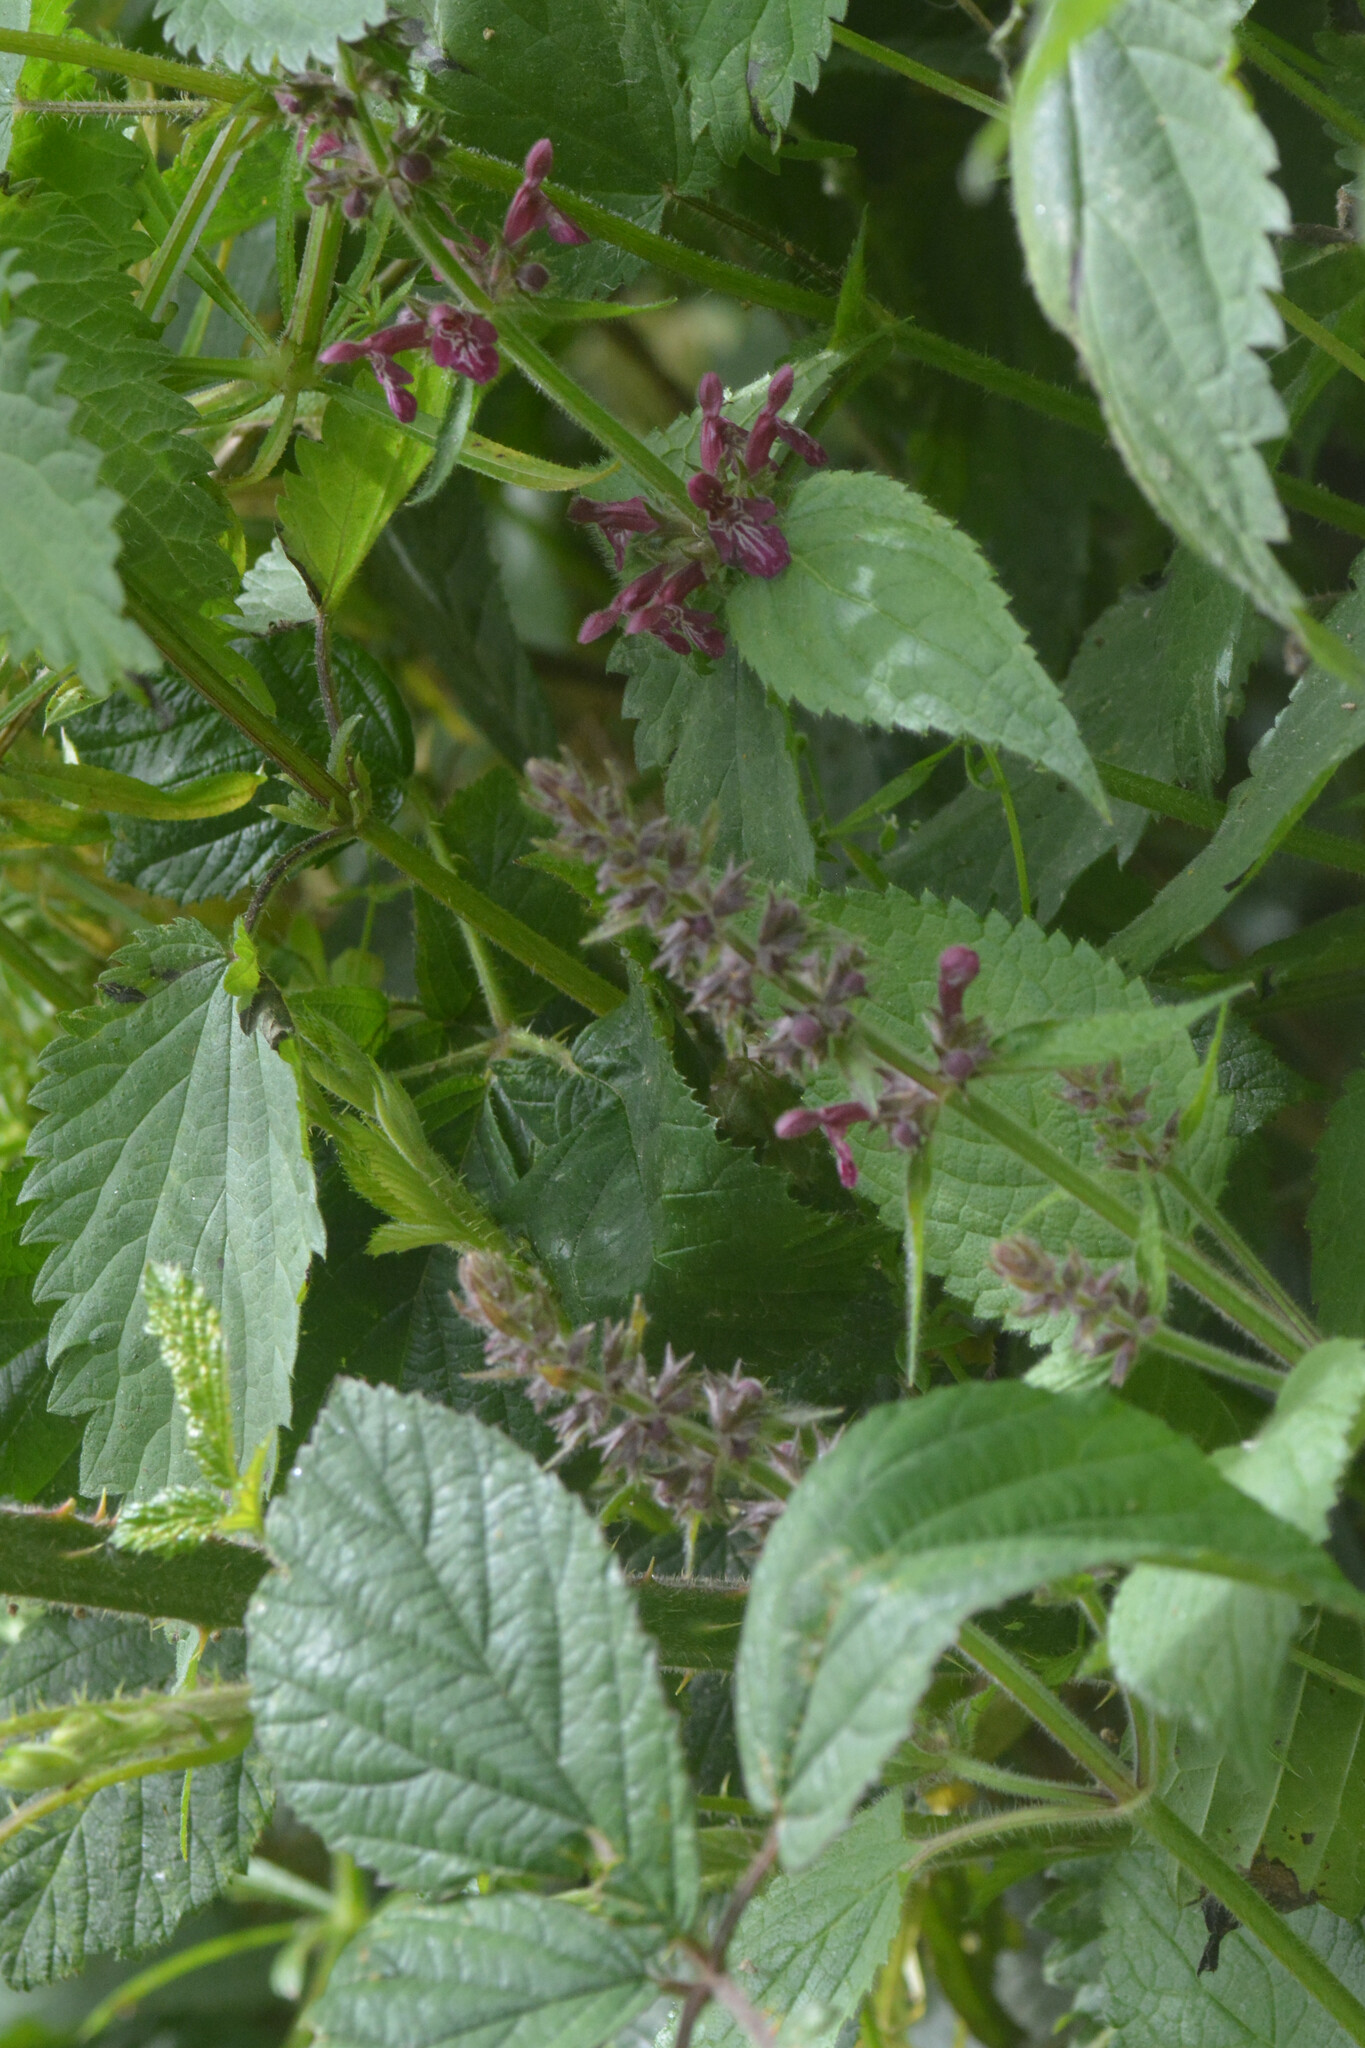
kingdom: Plantae
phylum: Tracheophyta
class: Magnoliopsida
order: Lamiales
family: Lamiaceae
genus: Stachys
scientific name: Stachys sylvatica
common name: Hedge woundwort
